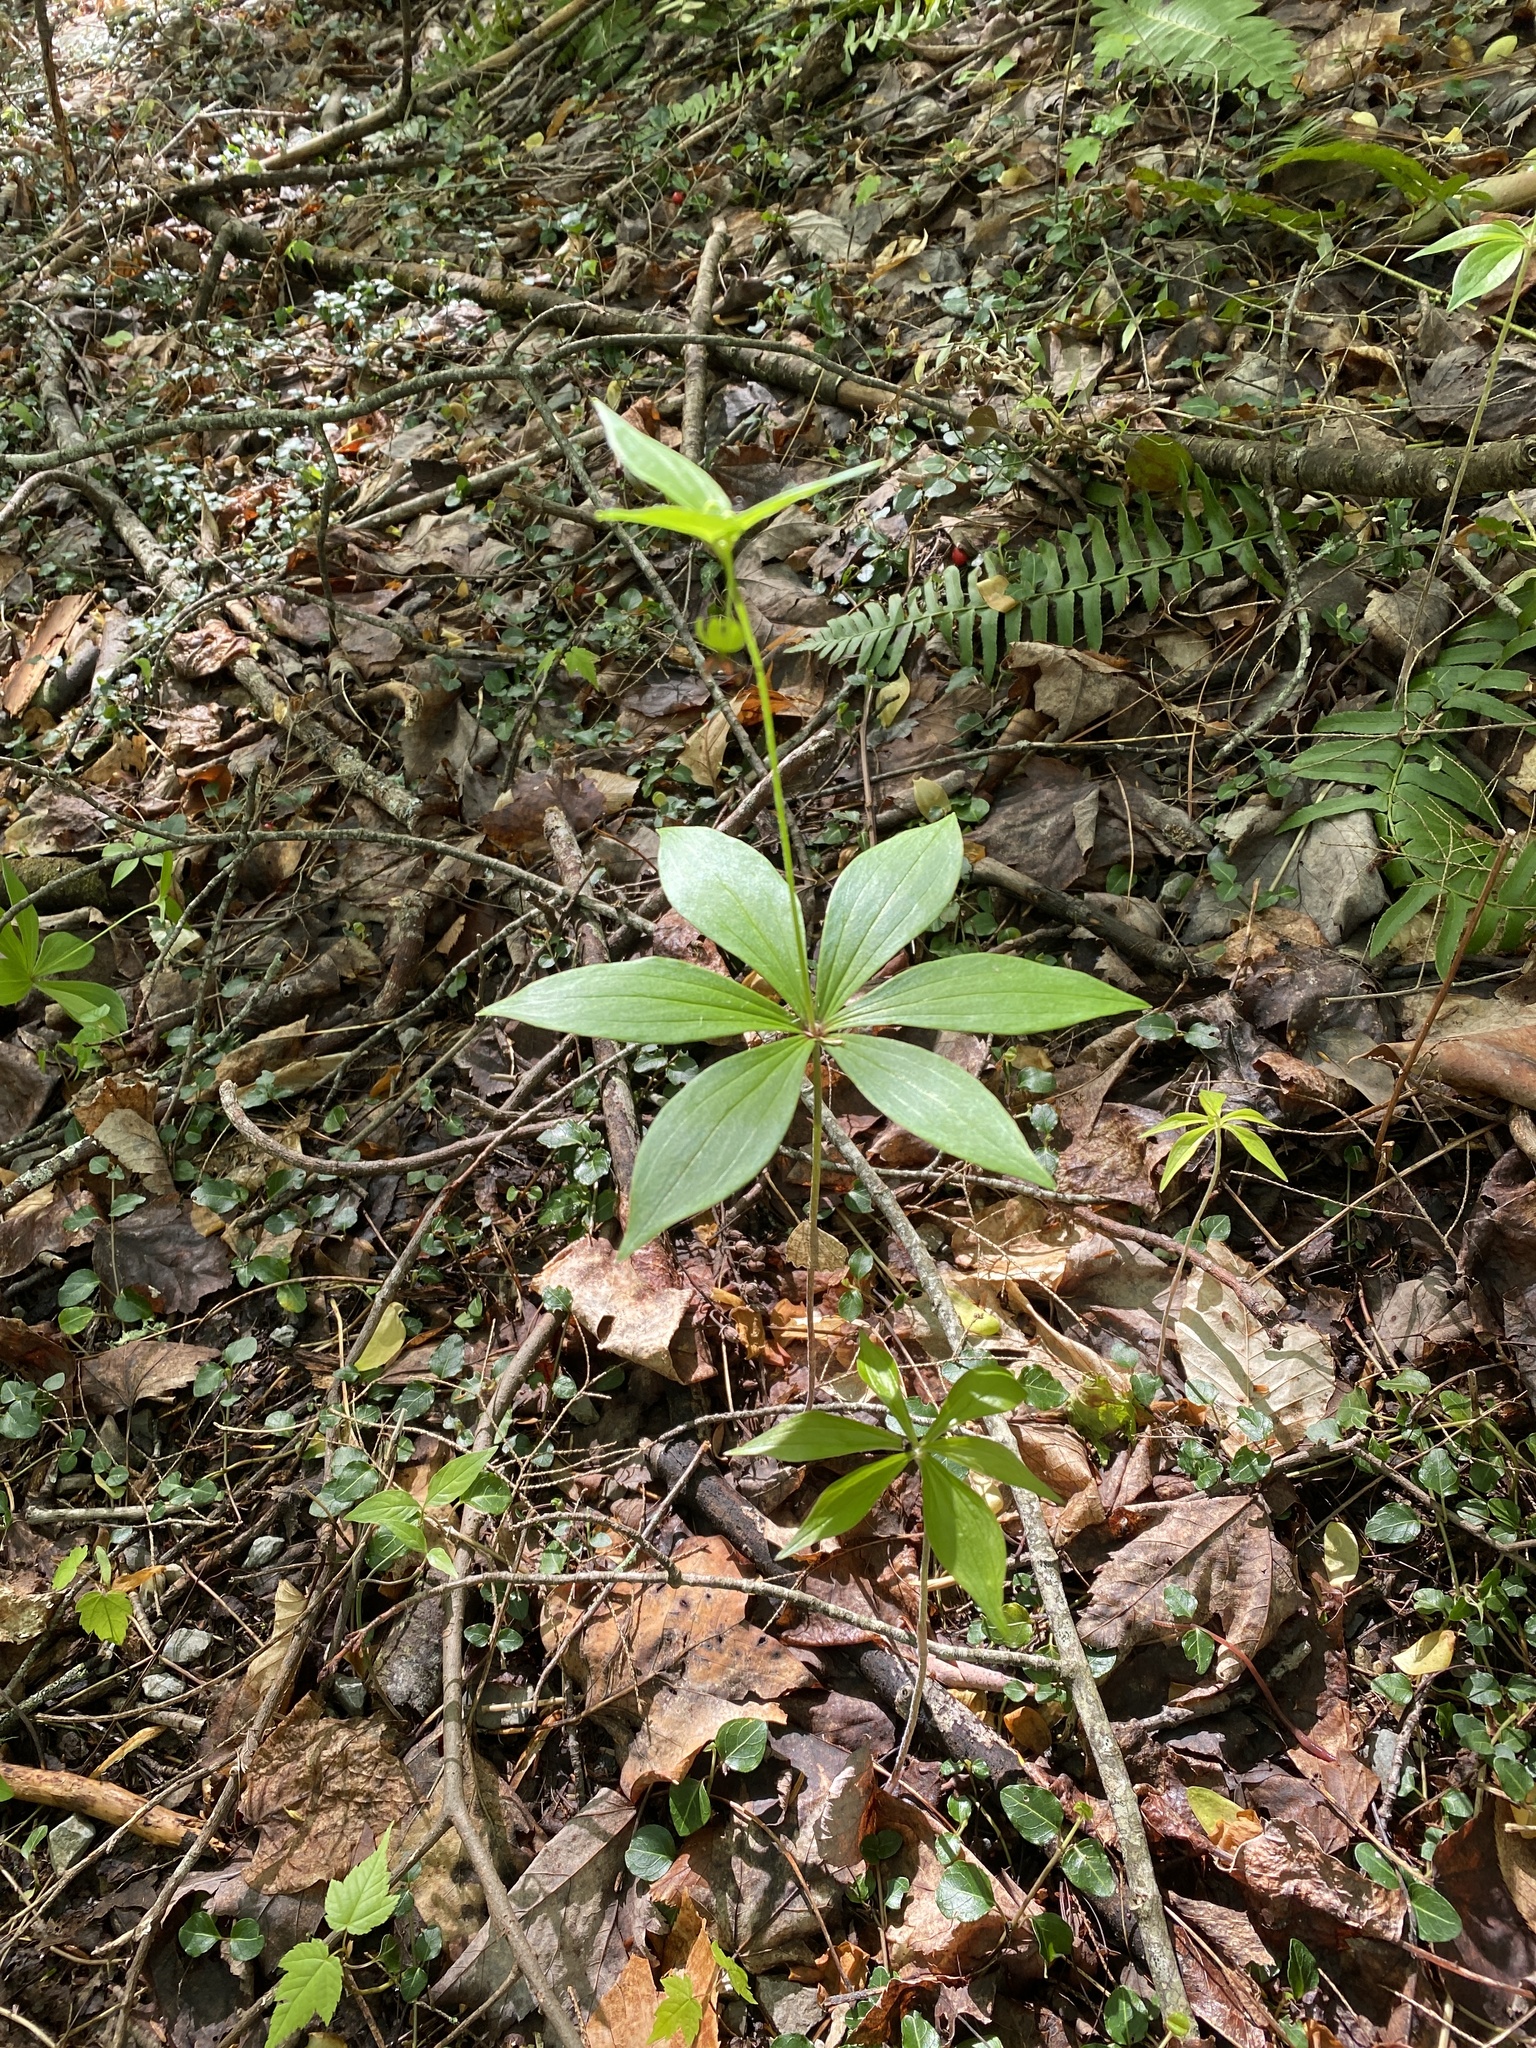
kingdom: Plantae
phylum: Tracheophyta
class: Liliopsida
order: Liliales
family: Liliaceae
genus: Medeola
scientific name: Medeola virginiana
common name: Indian cucumber-root
